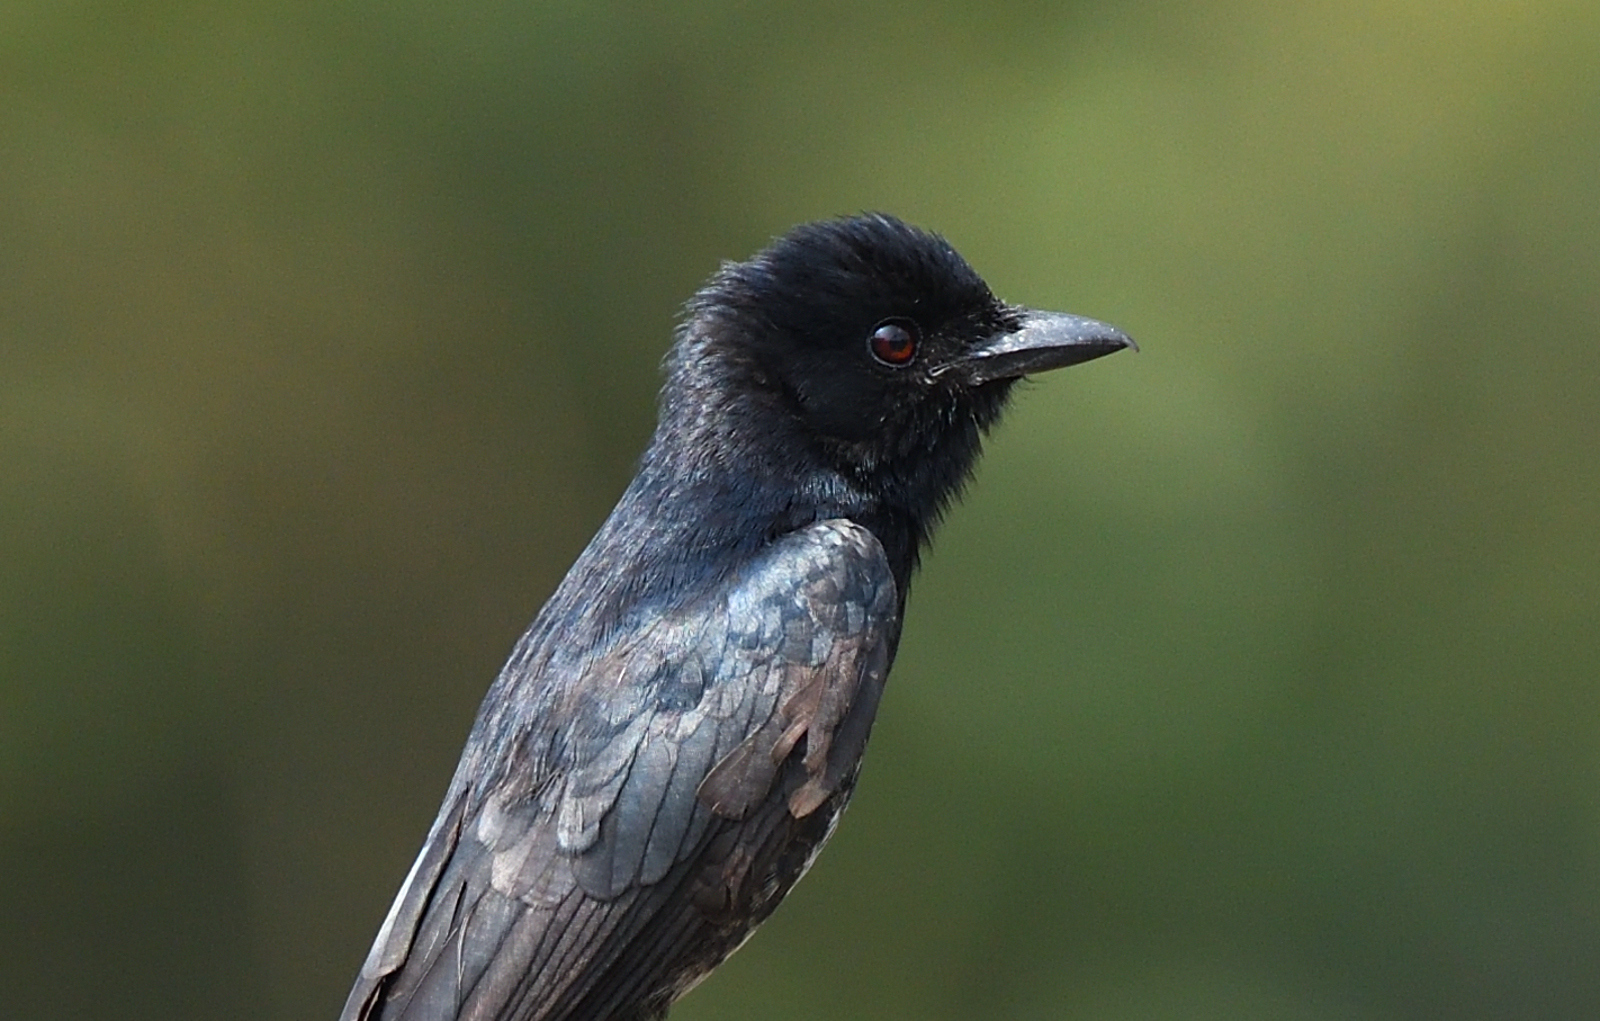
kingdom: Animalia
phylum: Chordata
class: Aves
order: Passeriformes
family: Dicruridae
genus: Dicrurus
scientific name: Dicrurus macrocercus
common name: Black drongo
